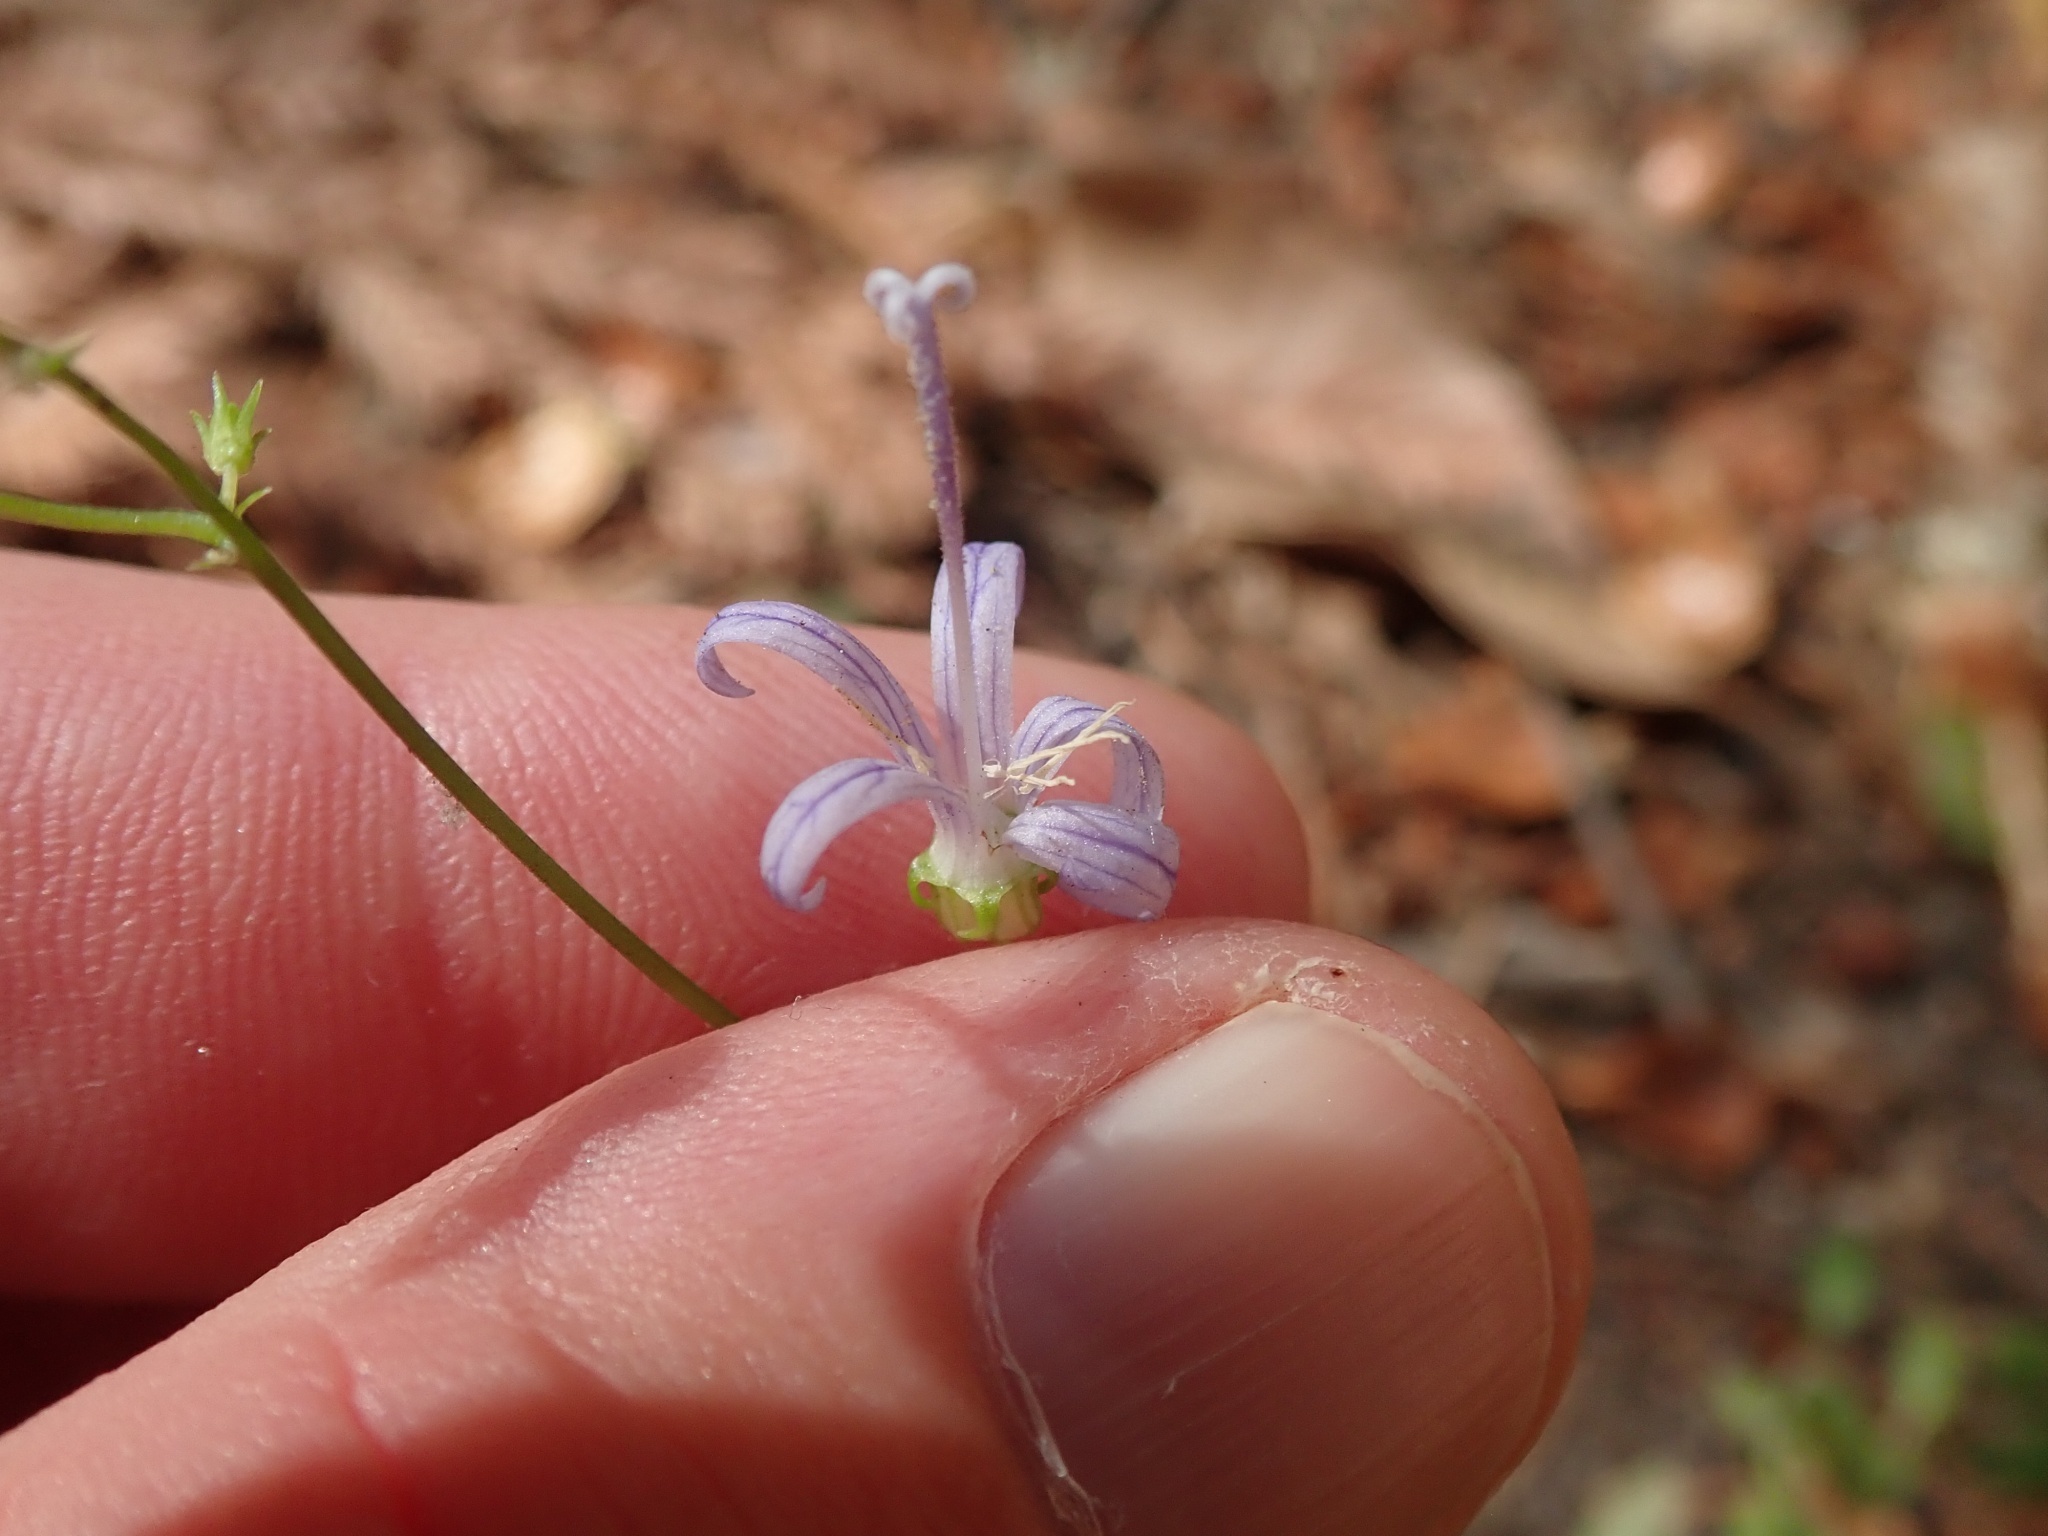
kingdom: Plantae
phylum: Tracheophyta
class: Magnoliopsida
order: Asterales
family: Campanulaceae
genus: Smithiastrum
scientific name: Smithiastrum prenanthoides
